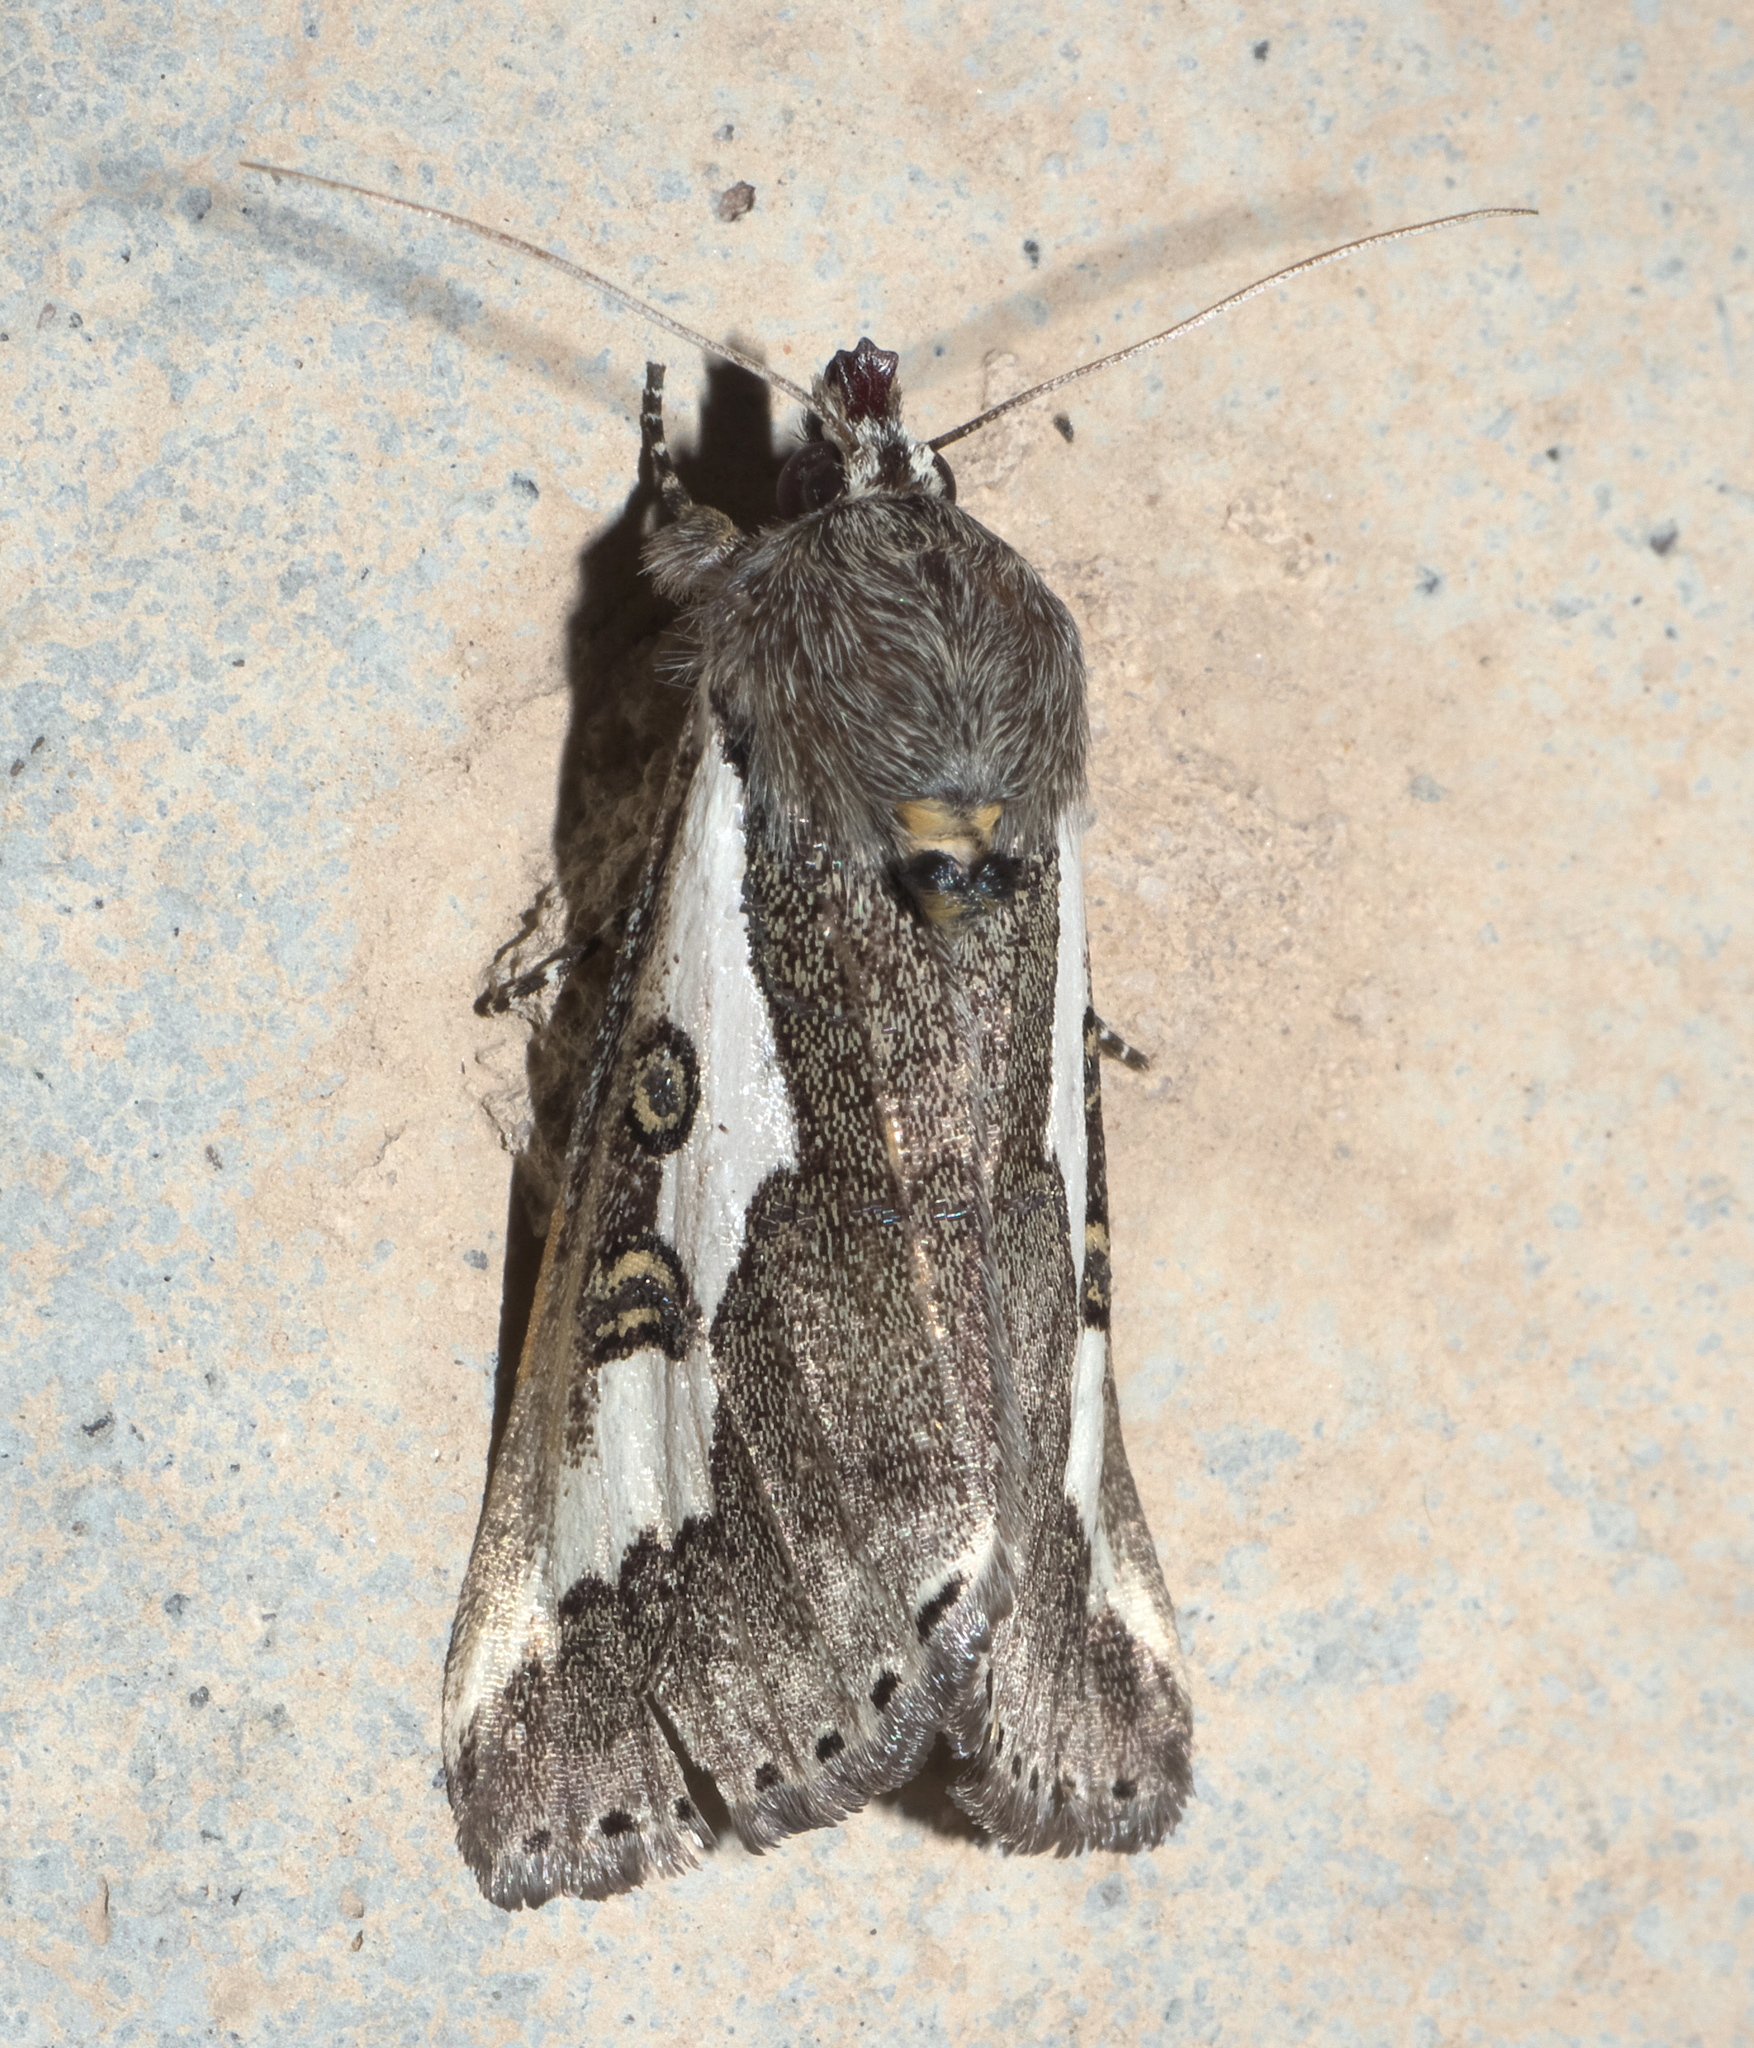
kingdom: Animalia
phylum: Arthropoda
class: Insecta
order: Lepidoptera
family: Noctuidae
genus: Euscirrhopterus
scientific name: Euscirrhopterus gloveri
